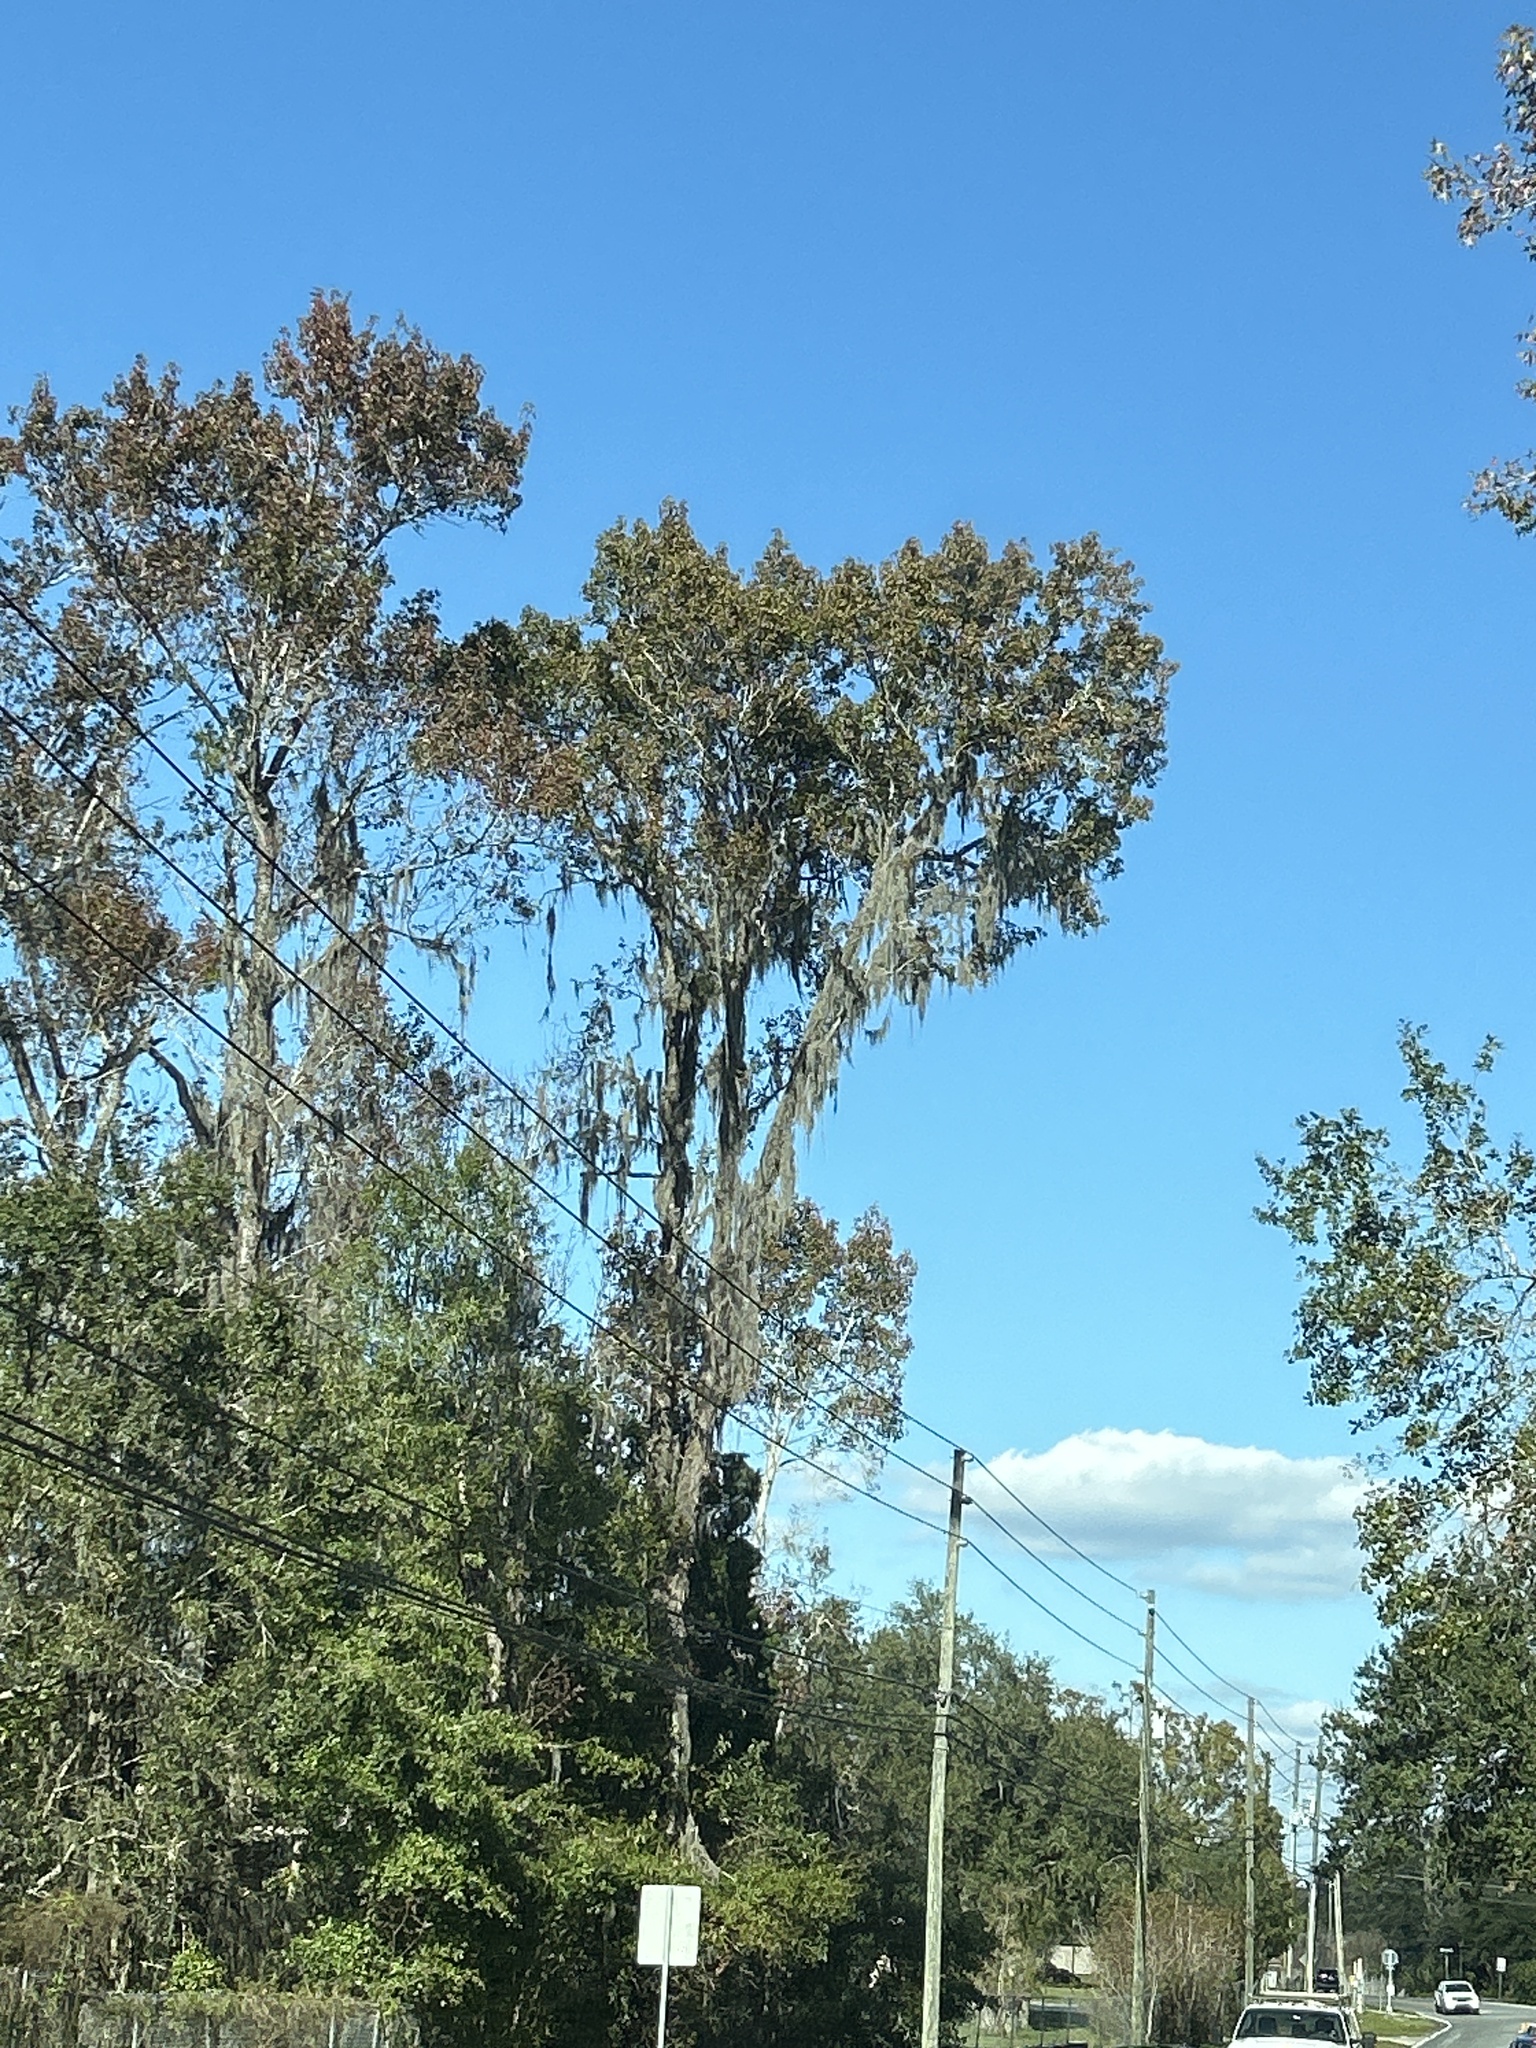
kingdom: Plantae
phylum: Tracheophyta
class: Liliopsida
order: Poales
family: Bromeliaceae
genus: Tillandsia
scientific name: Tillandsia usneoides
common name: Spanish moss
